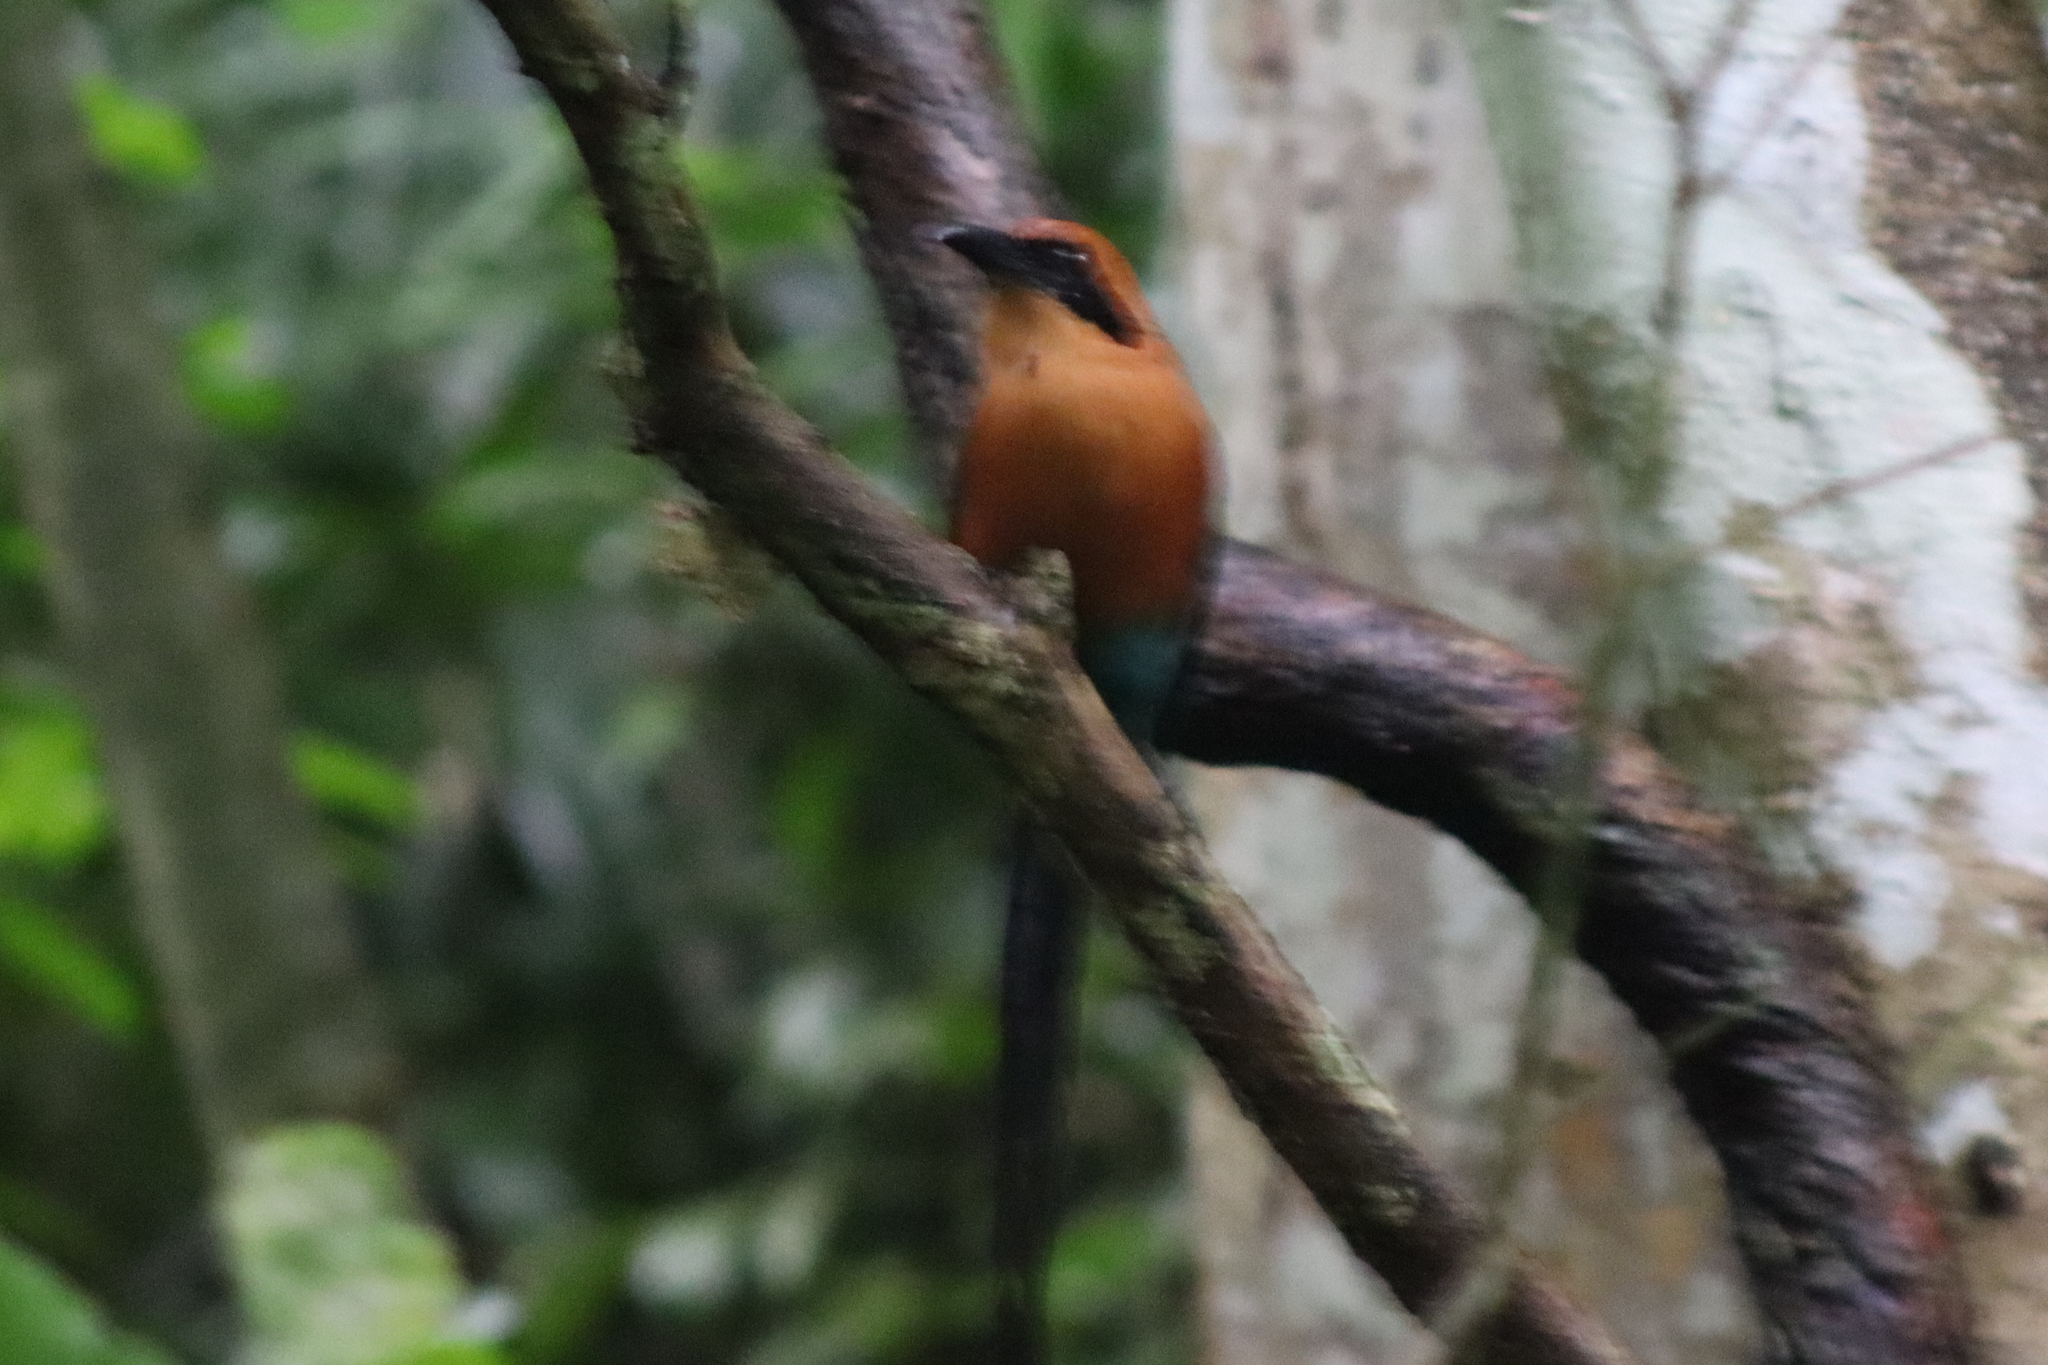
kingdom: Animalia
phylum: Chordata
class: Aves
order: Coraciiformes
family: Momotidae
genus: Baryphthengus
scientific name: Baryphthengus martii
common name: Rufous motmot
